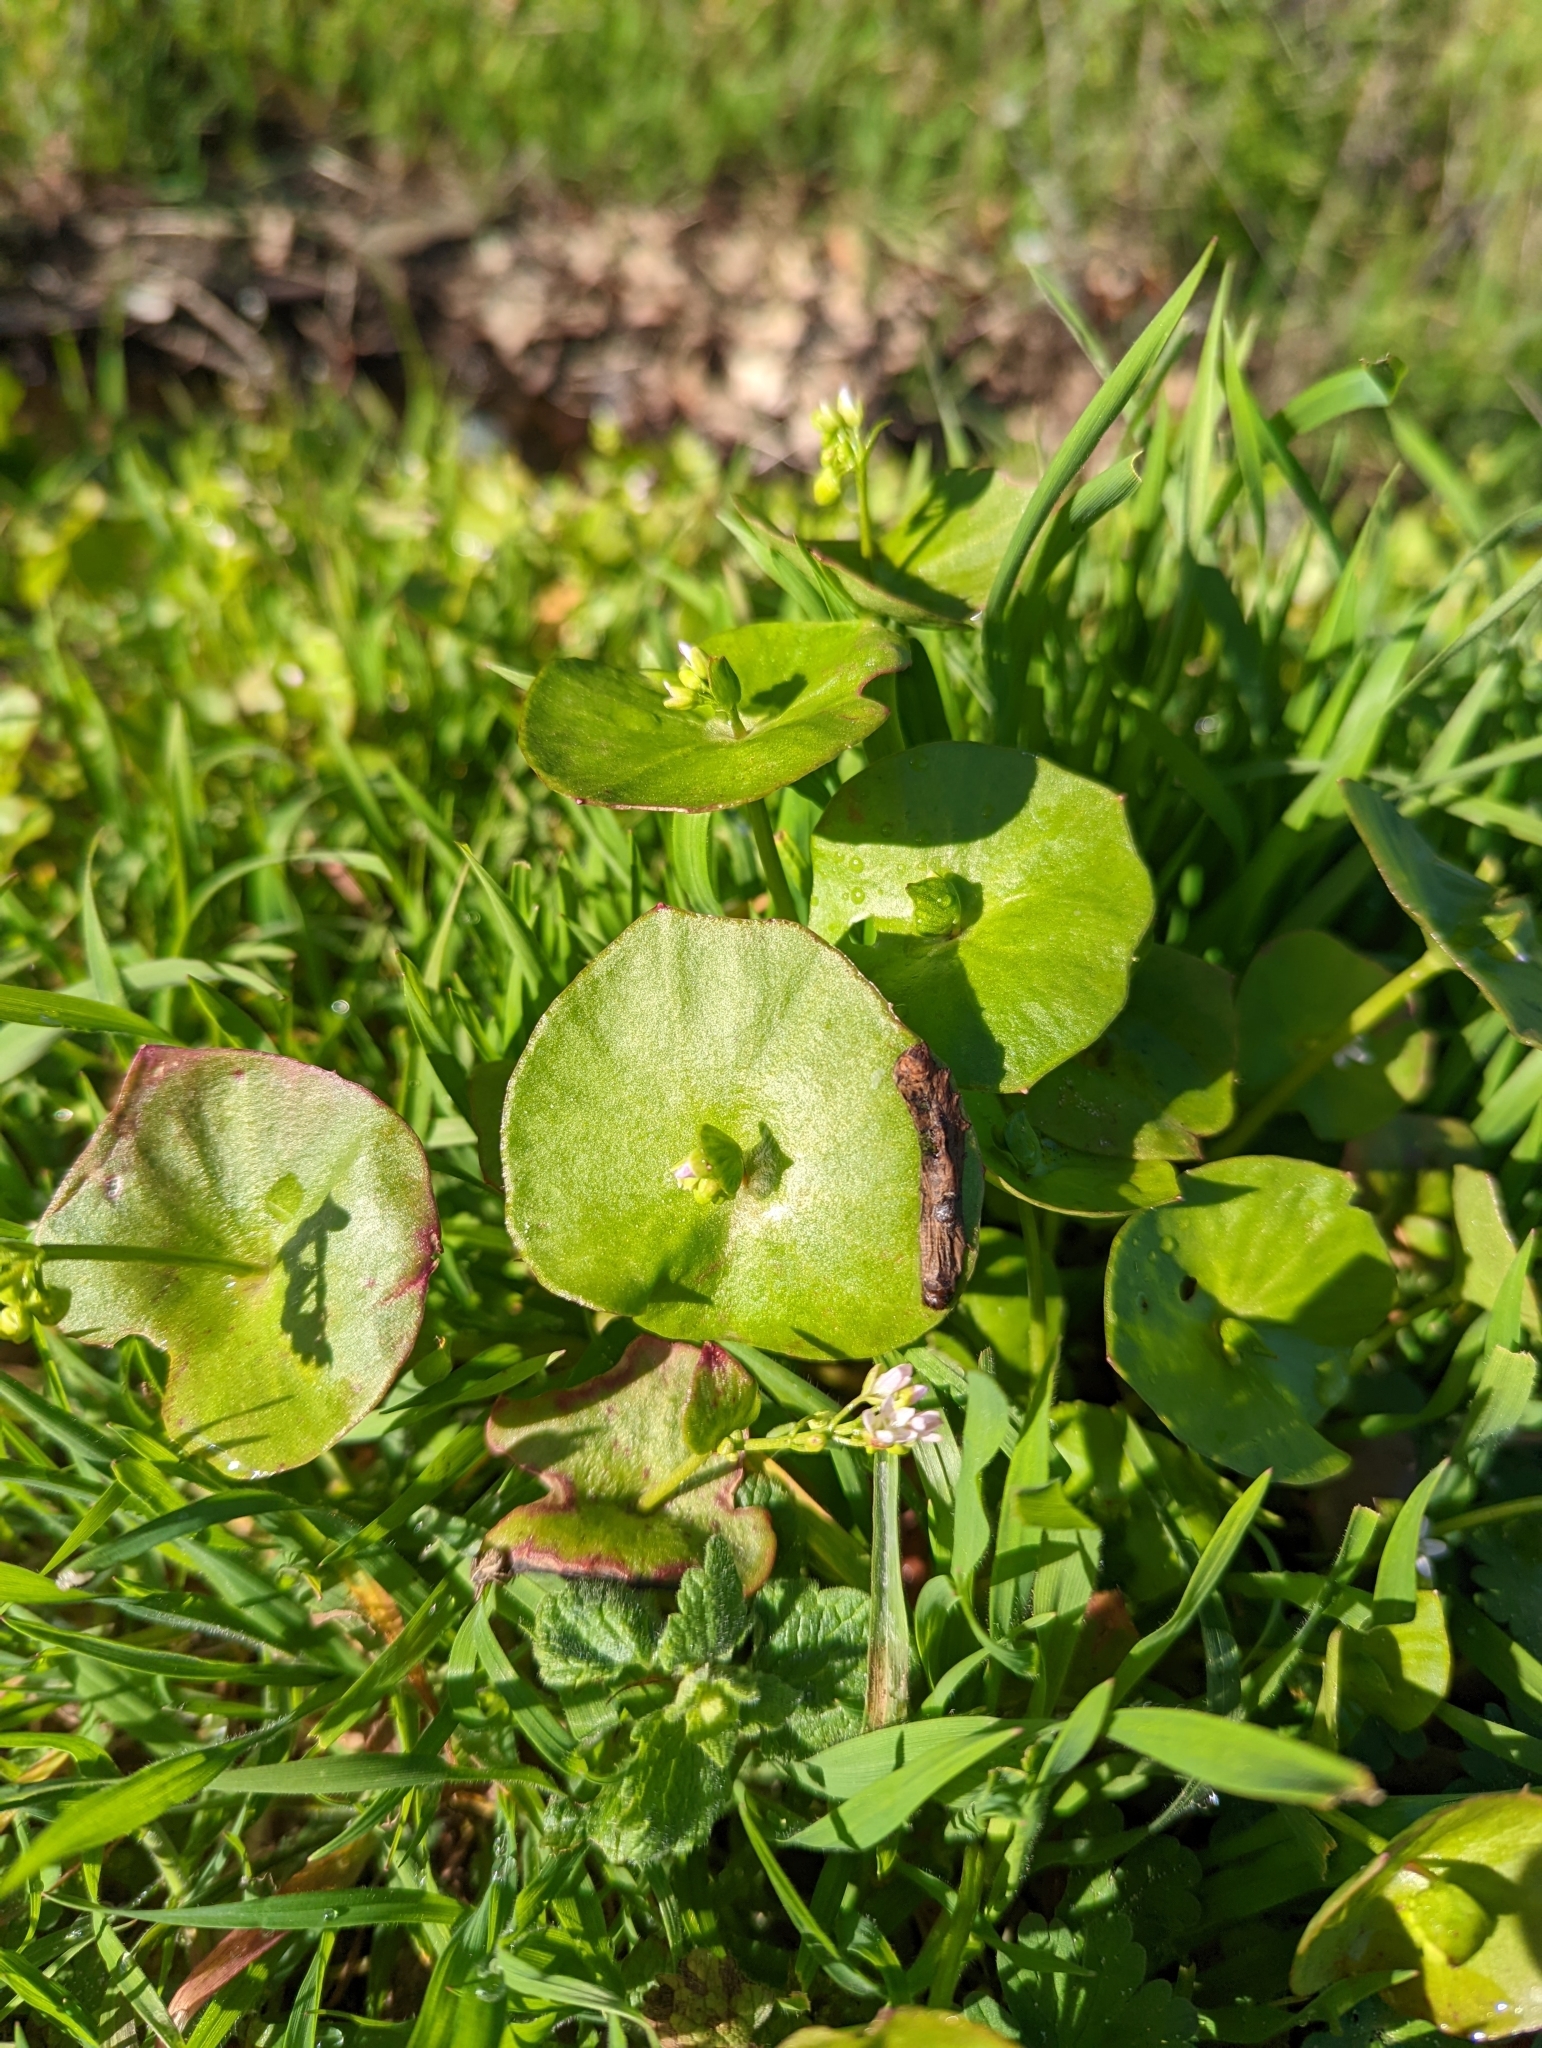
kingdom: Plantae
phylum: Tracheophyta
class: Magnoliopsida
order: Caryophyllales
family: Montiaceae
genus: Claytonia
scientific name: Claytonia perfoliata
